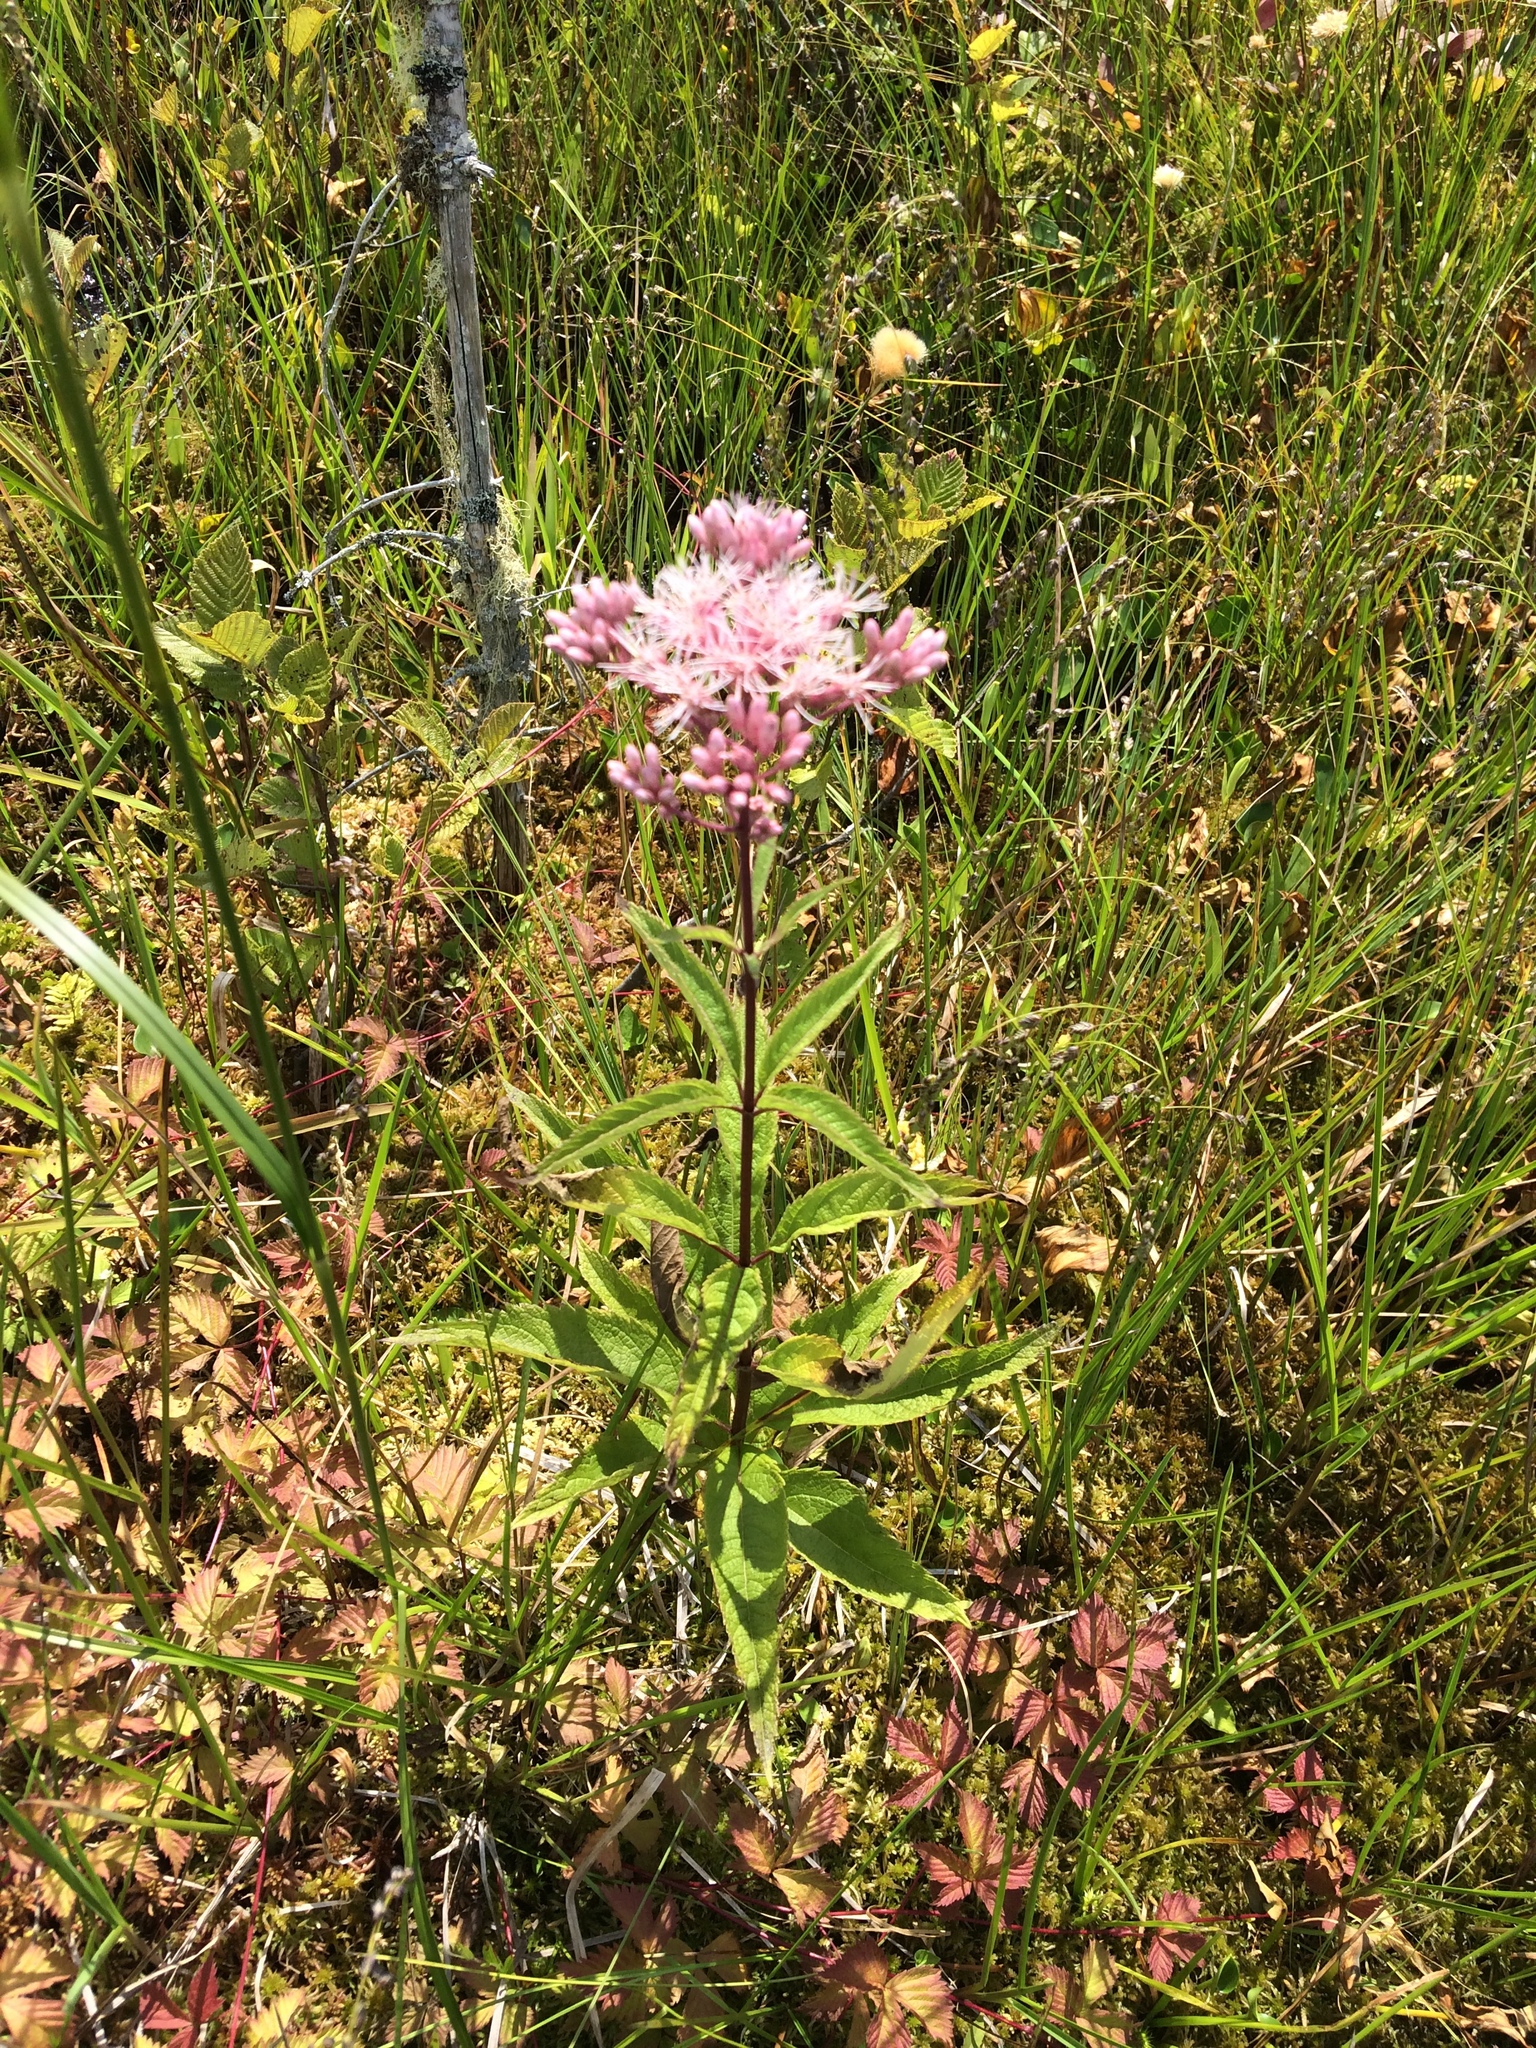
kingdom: Plantae
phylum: Tracheophyta
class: Magnoliopsida
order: Asterales
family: Asteraceae
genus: Eutrochium
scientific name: Eutrochium maculatum
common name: Spotted joe pye weed
